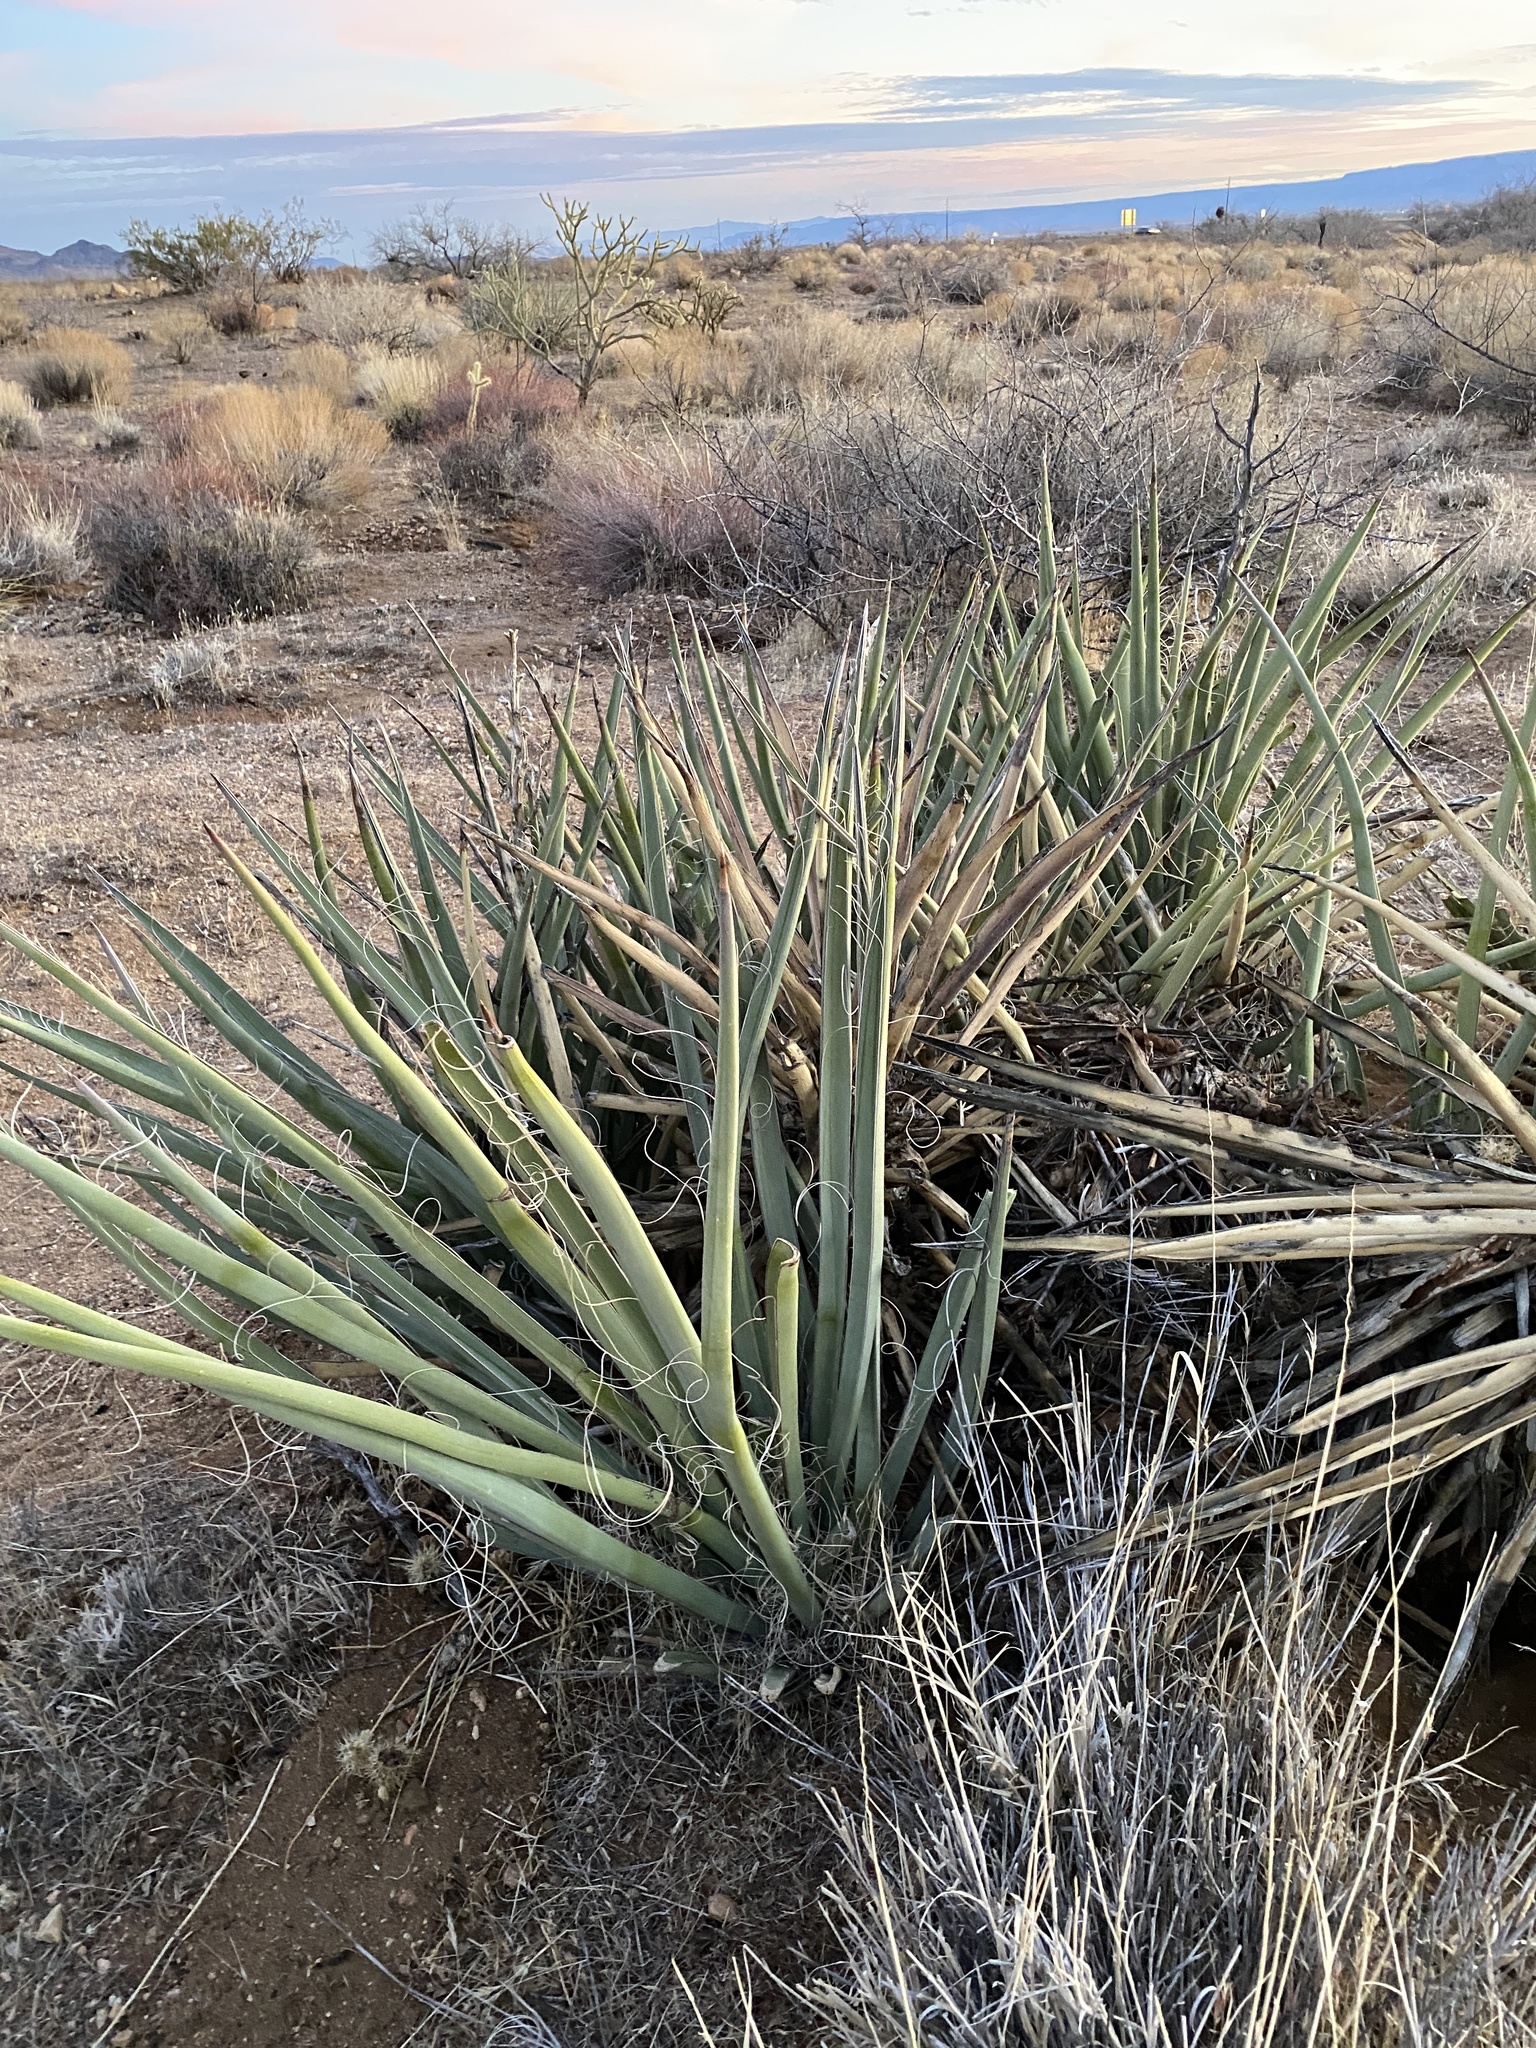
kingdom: Plantae
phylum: Tracheophyta
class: Liliopsida
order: Asparagales
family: Asparagaceae
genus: Yucca
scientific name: Yucca baccata
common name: Banana yucca
